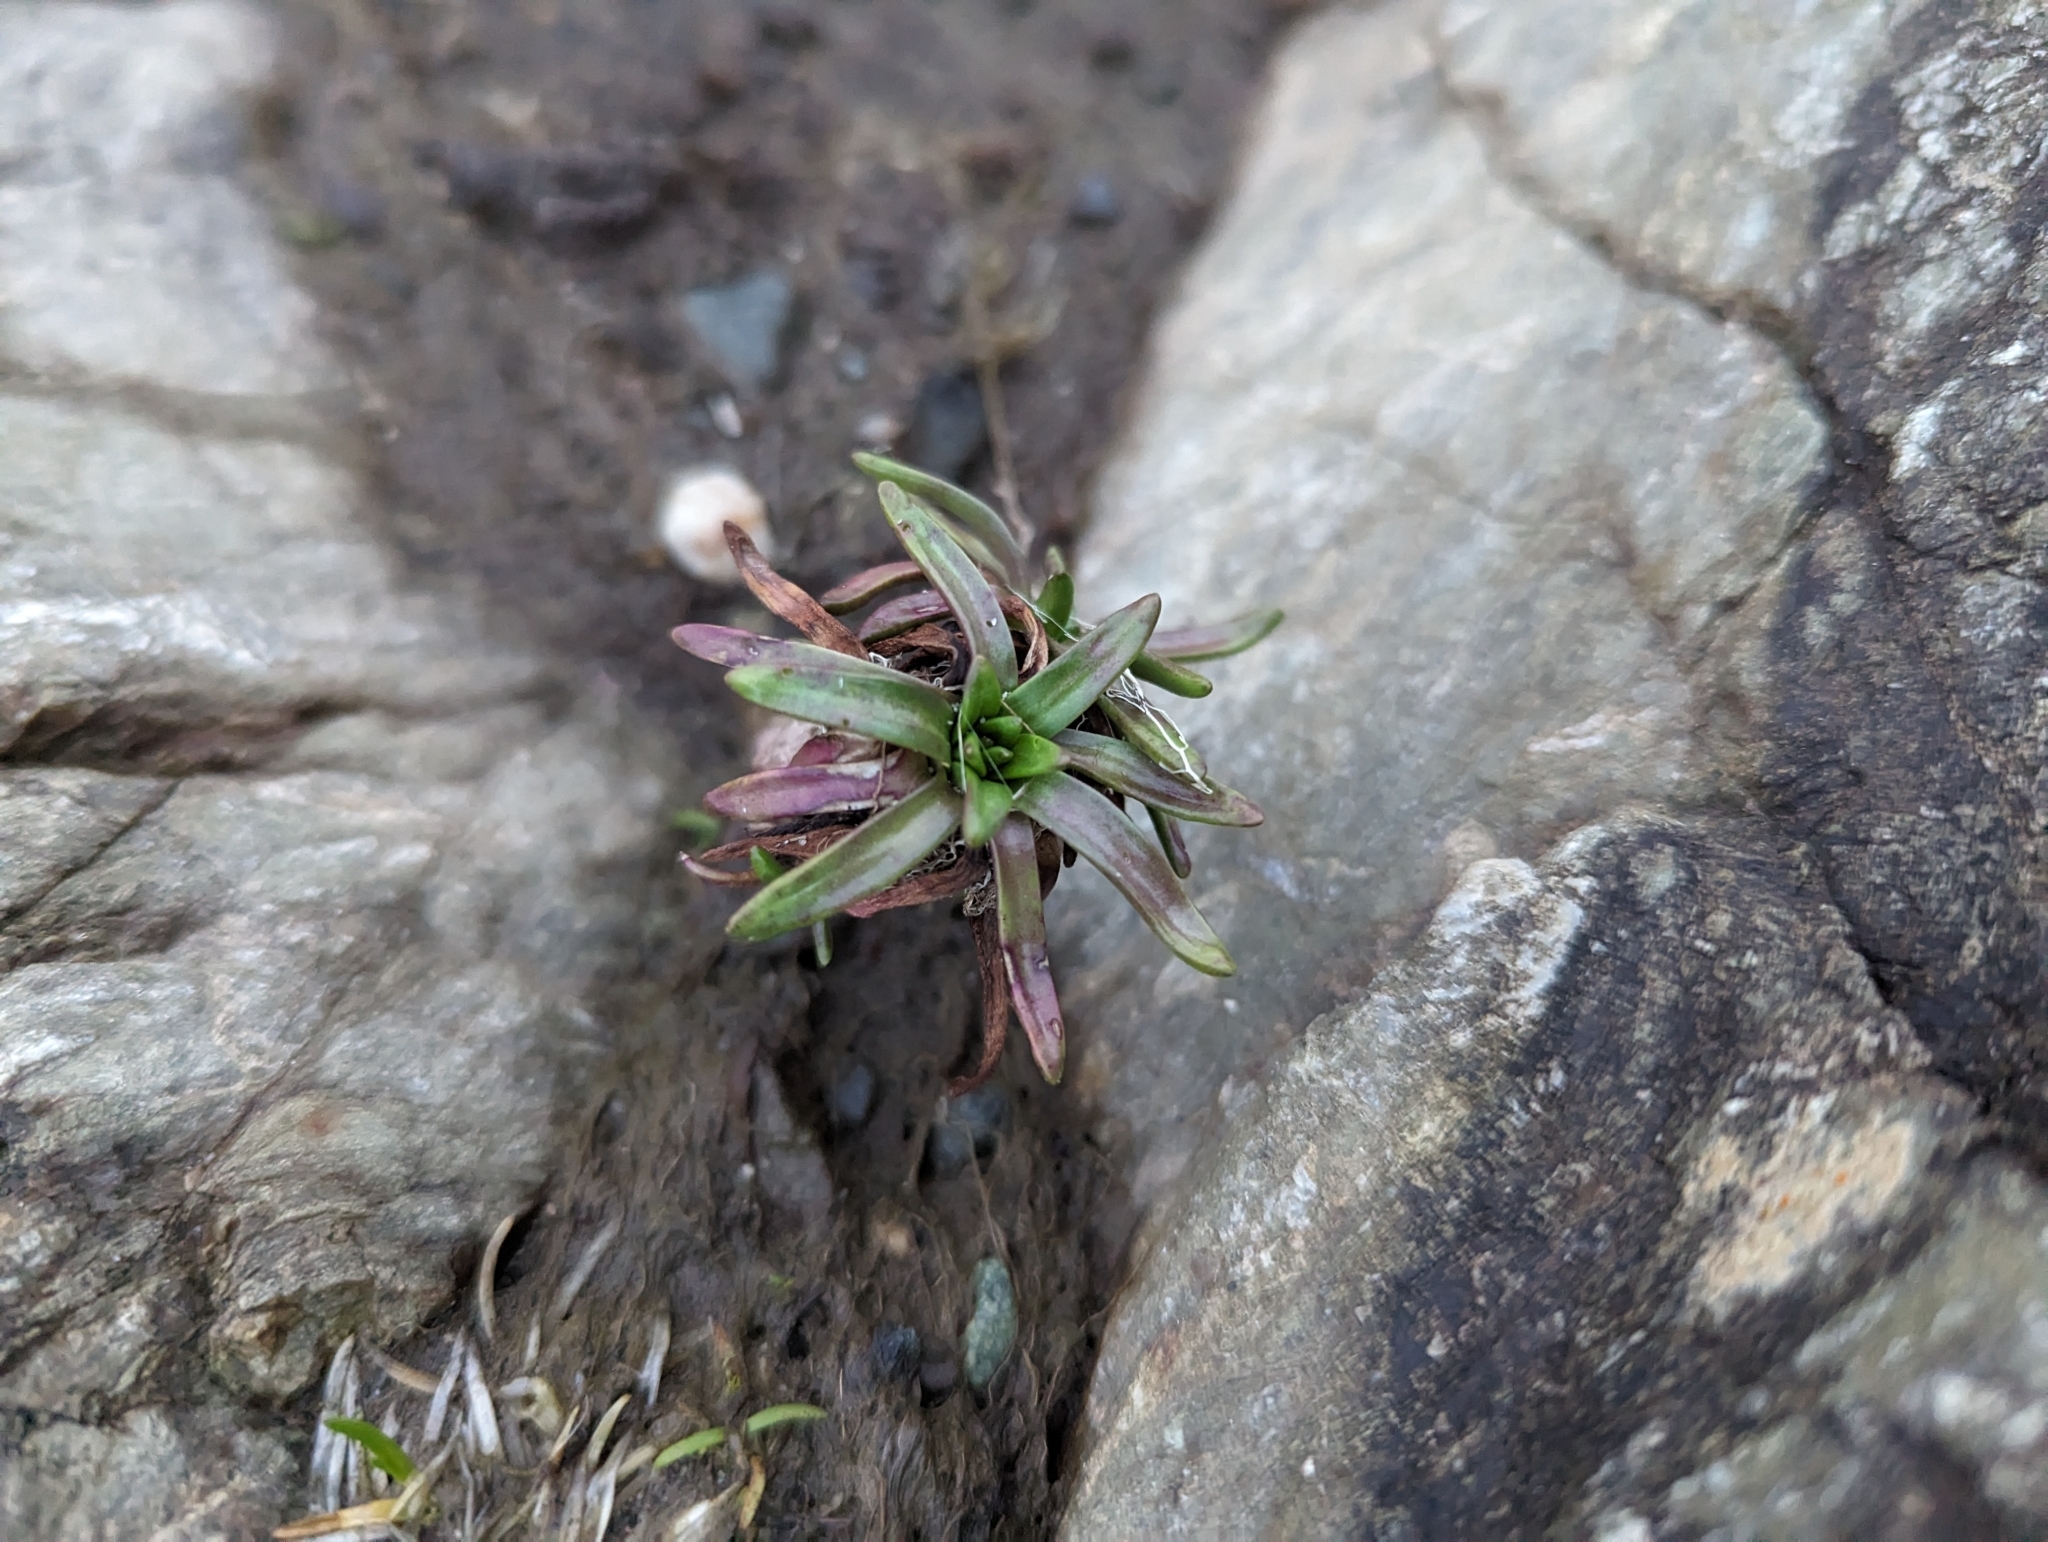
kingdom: Plantae
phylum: Tracheophyta
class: Magnoliopsida
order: Lamiales
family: Plantaginaceae
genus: Plantago
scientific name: Plantago maritima
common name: Sea plantain
